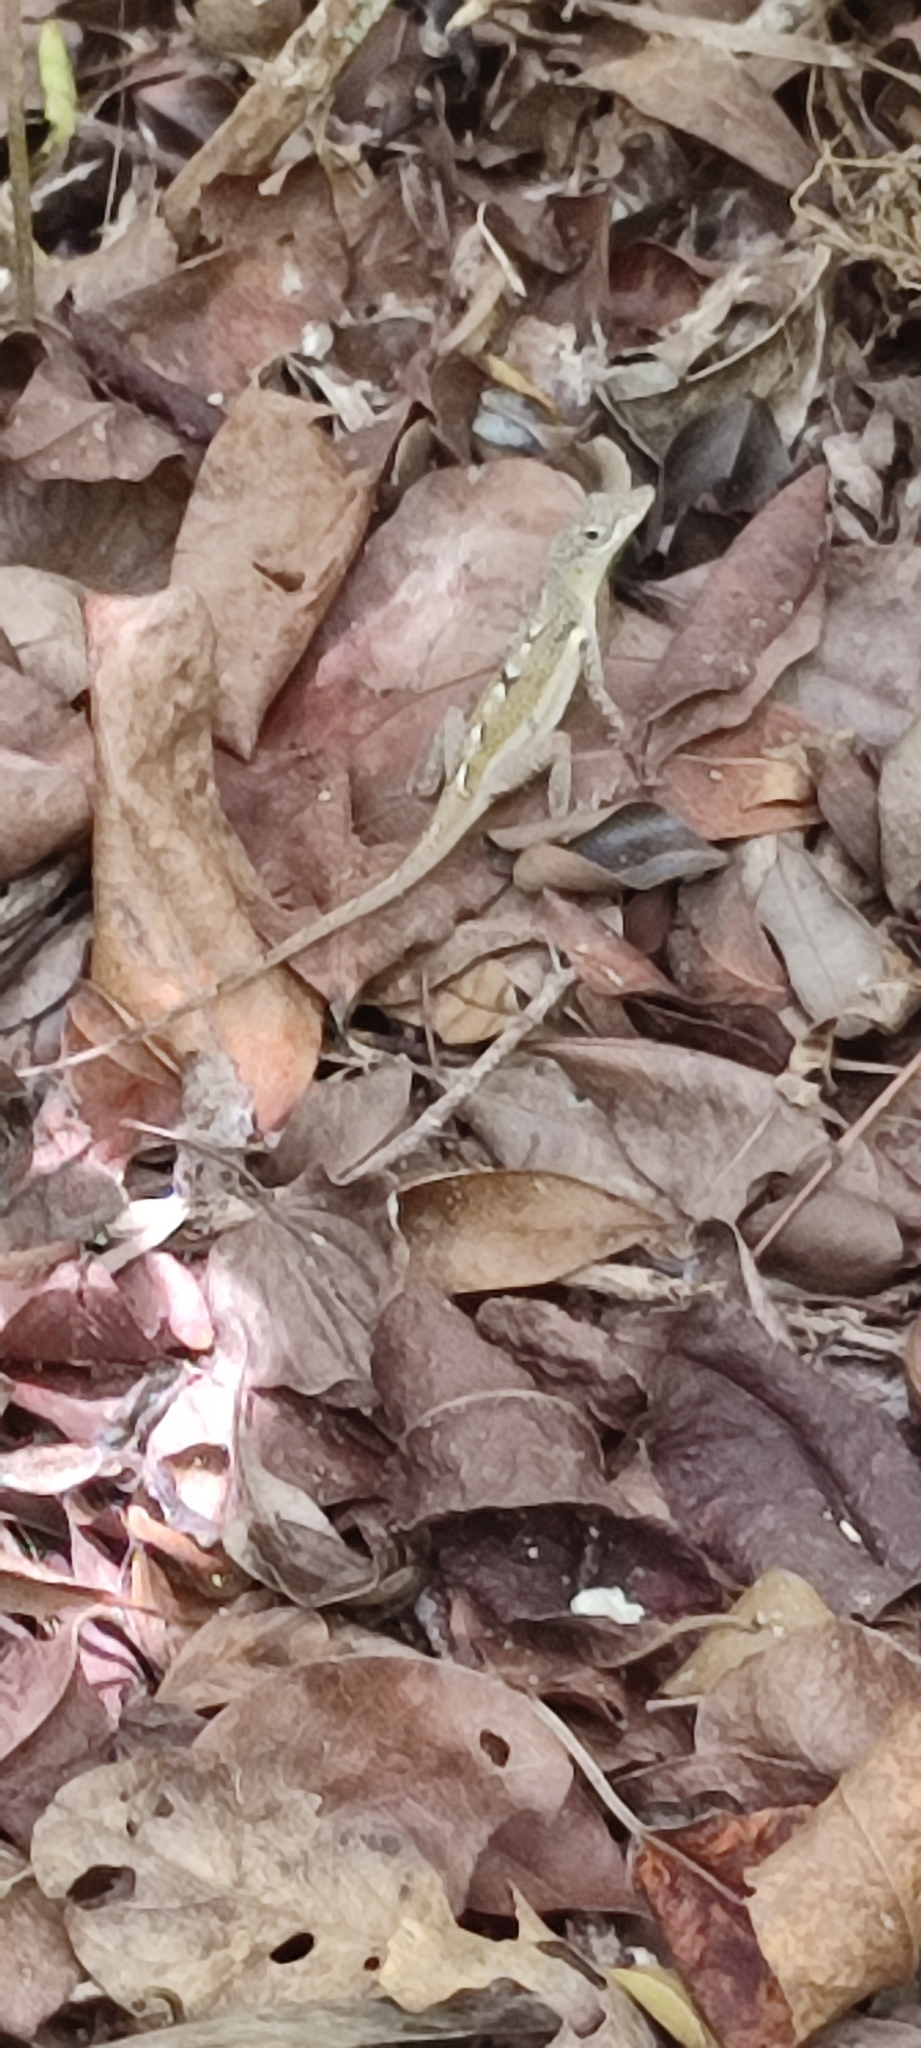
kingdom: Animalia
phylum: Chordata
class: Squamata
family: Dactyloidae
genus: Anolis
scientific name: Anolis conspersus
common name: Grand cayman anole
